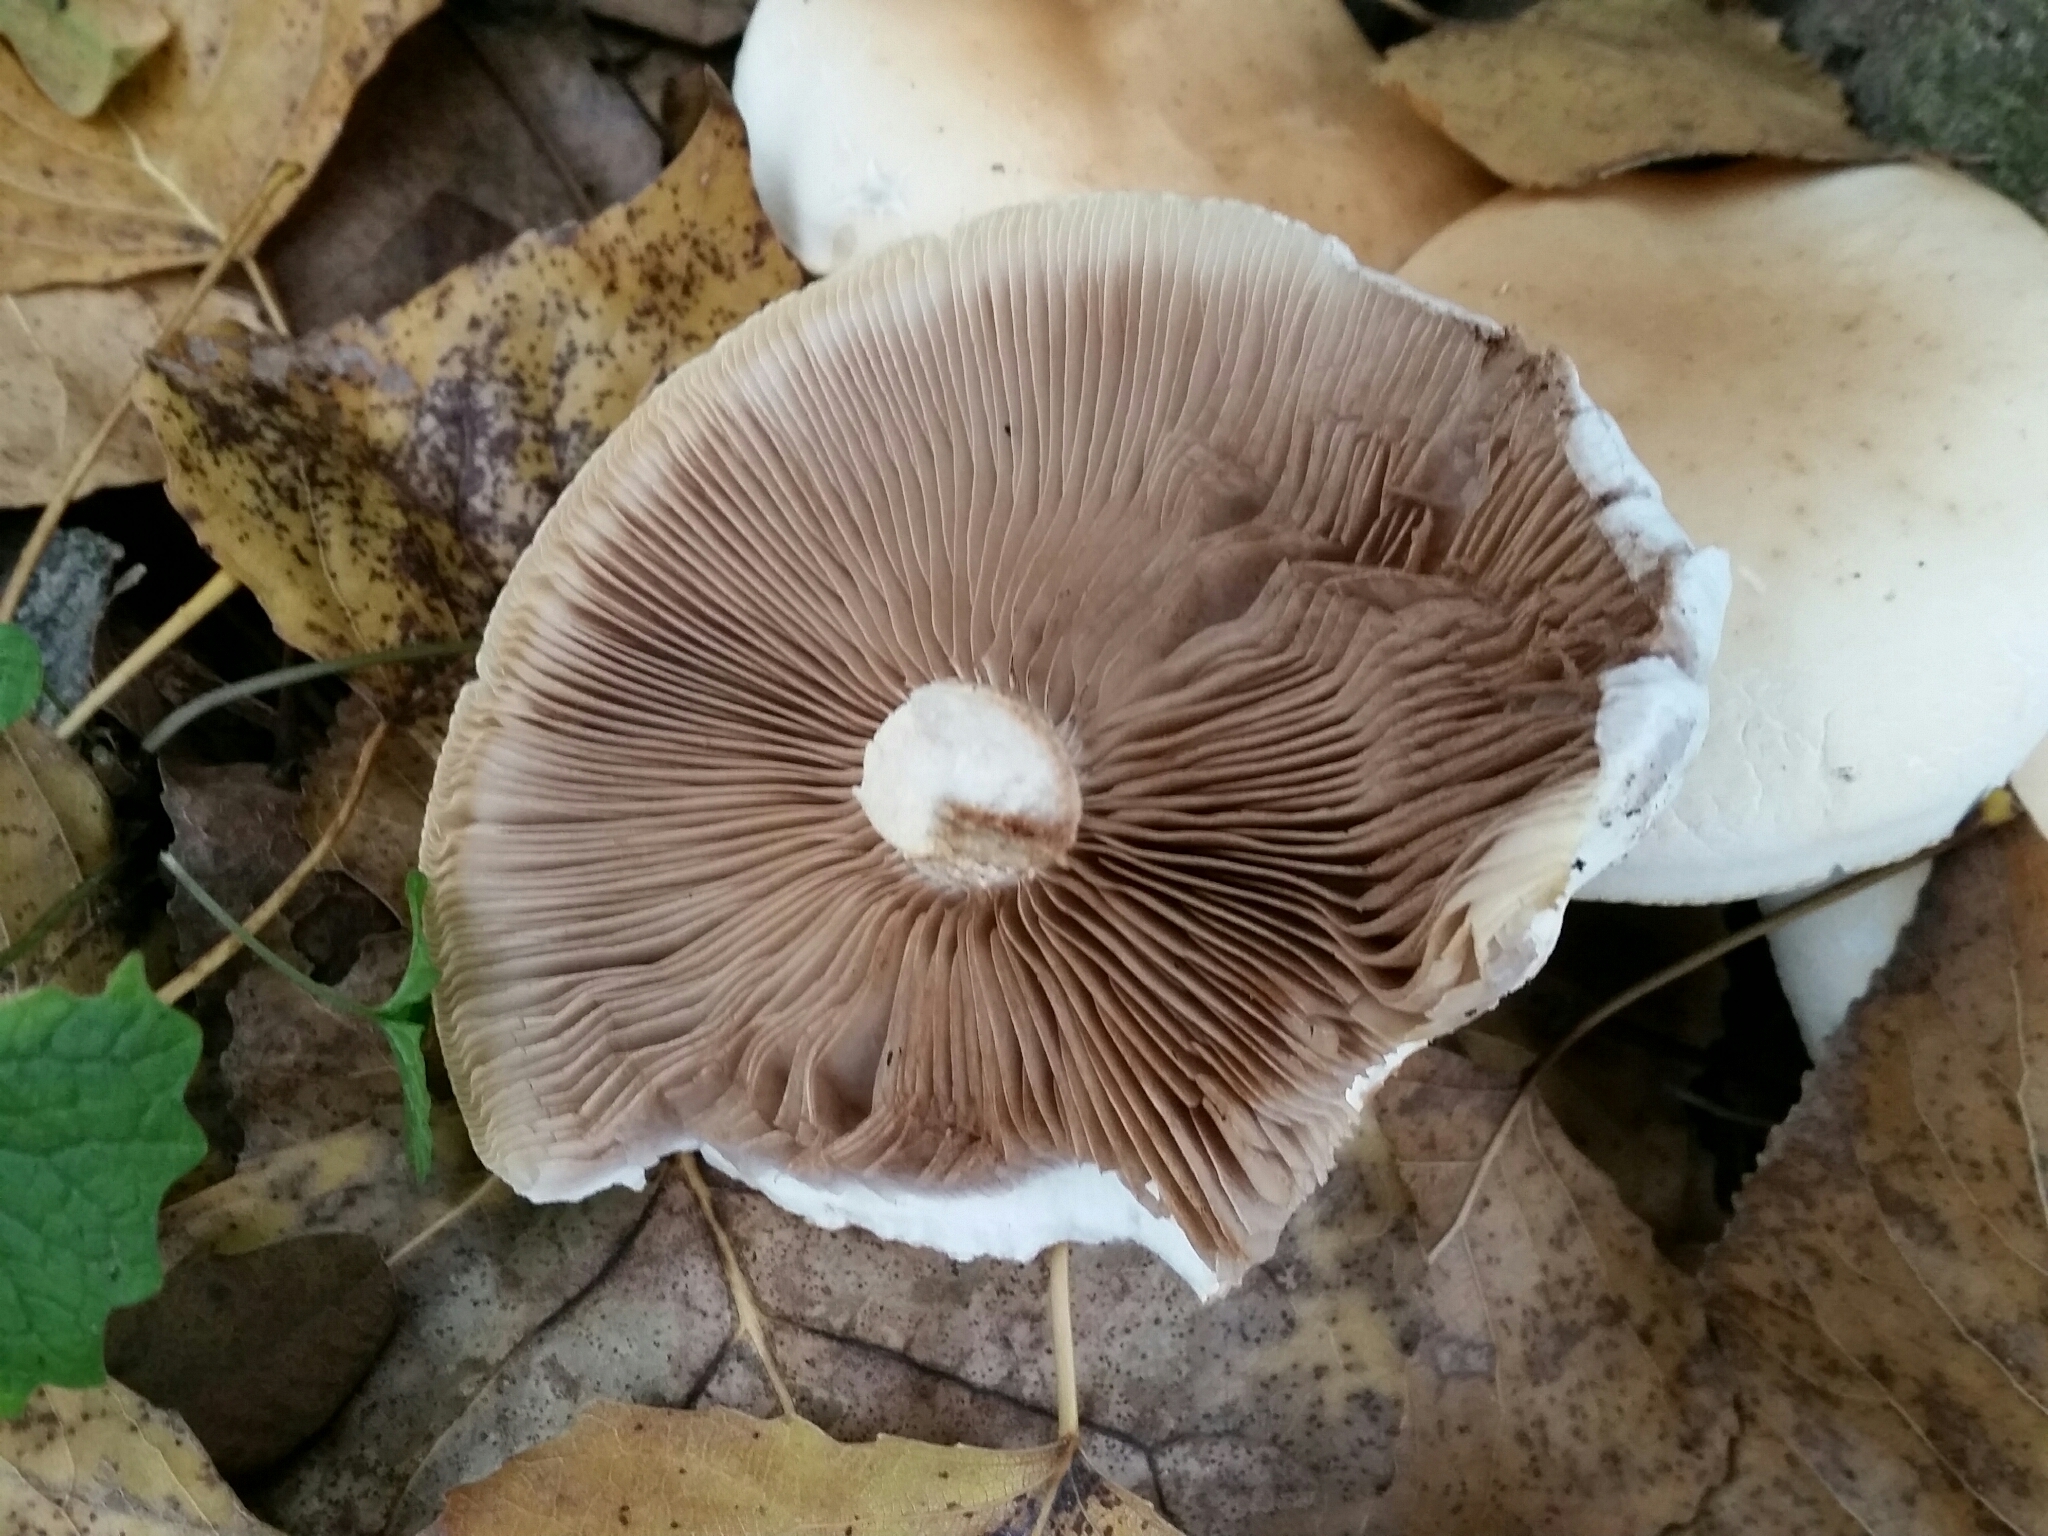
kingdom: Fungi
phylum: Basidiomycota
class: Agaricomycetes
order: Agaricales
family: Tubariaceae
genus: Cyclocybe
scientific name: Cyclocybe cylindracea
